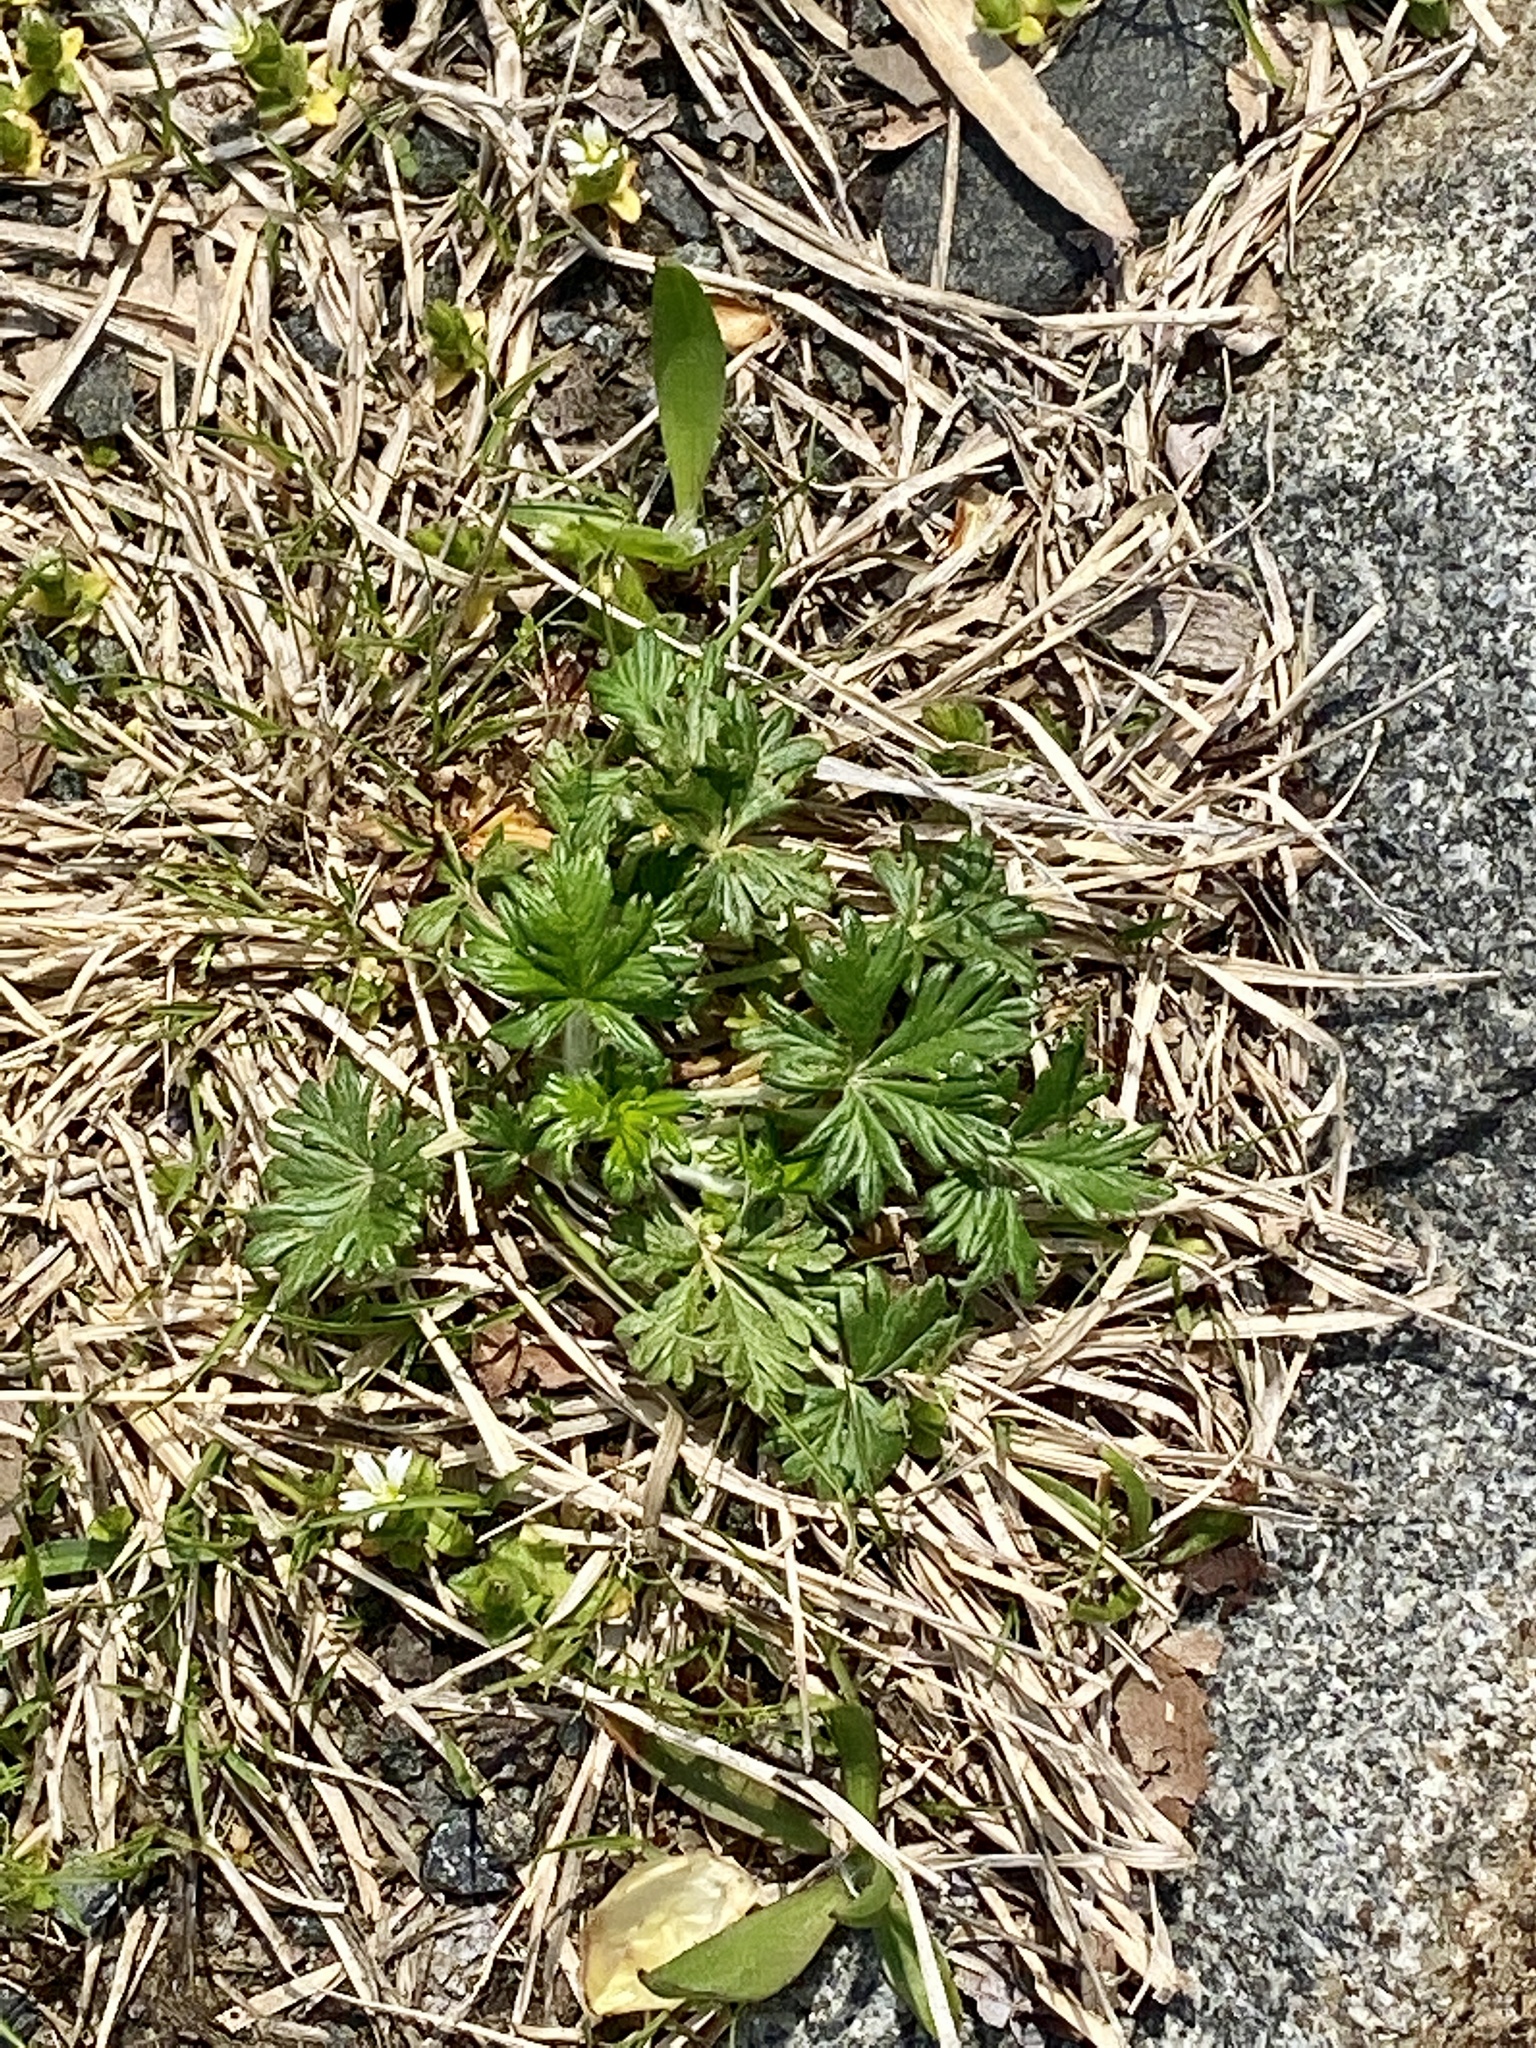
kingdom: Plantae
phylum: Tracheophyta
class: Magnoliopsida
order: Rosales
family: Rosaceae
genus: Potentilla
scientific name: Potentilla argentea
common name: Hoary cinquefoil
